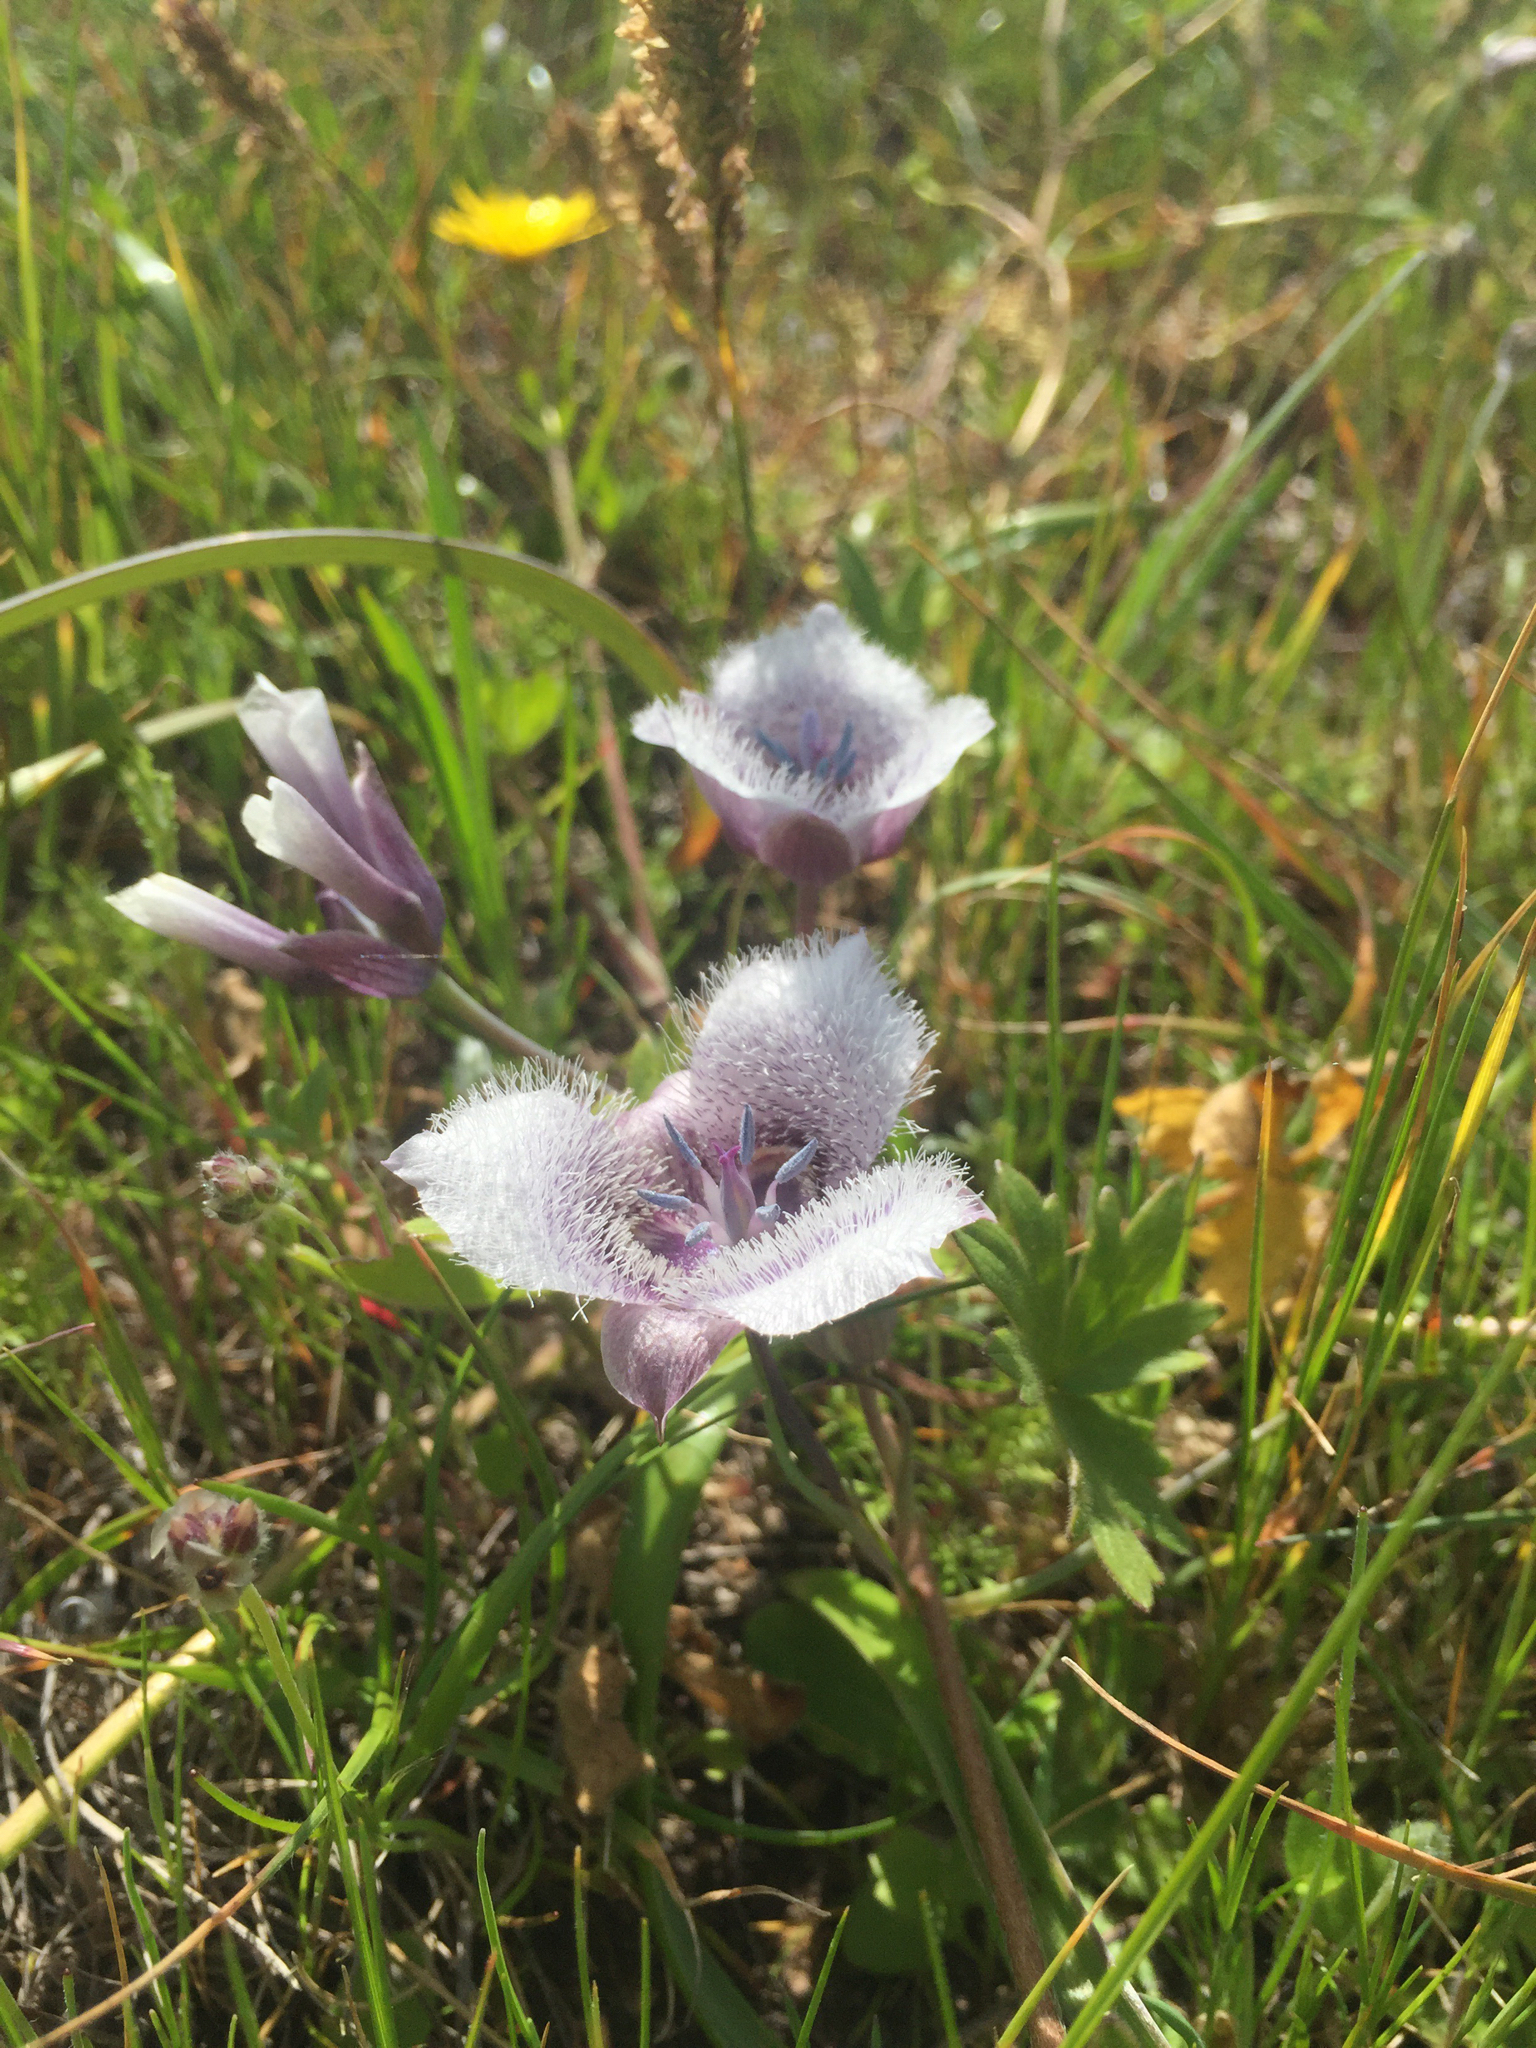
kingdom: Plantae
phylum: Tracheophyta
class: Liliopsida
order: Liliales
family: Liliaceae
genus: Calochortus
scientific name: Calochortus tolmiei
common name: Pussy-ears
